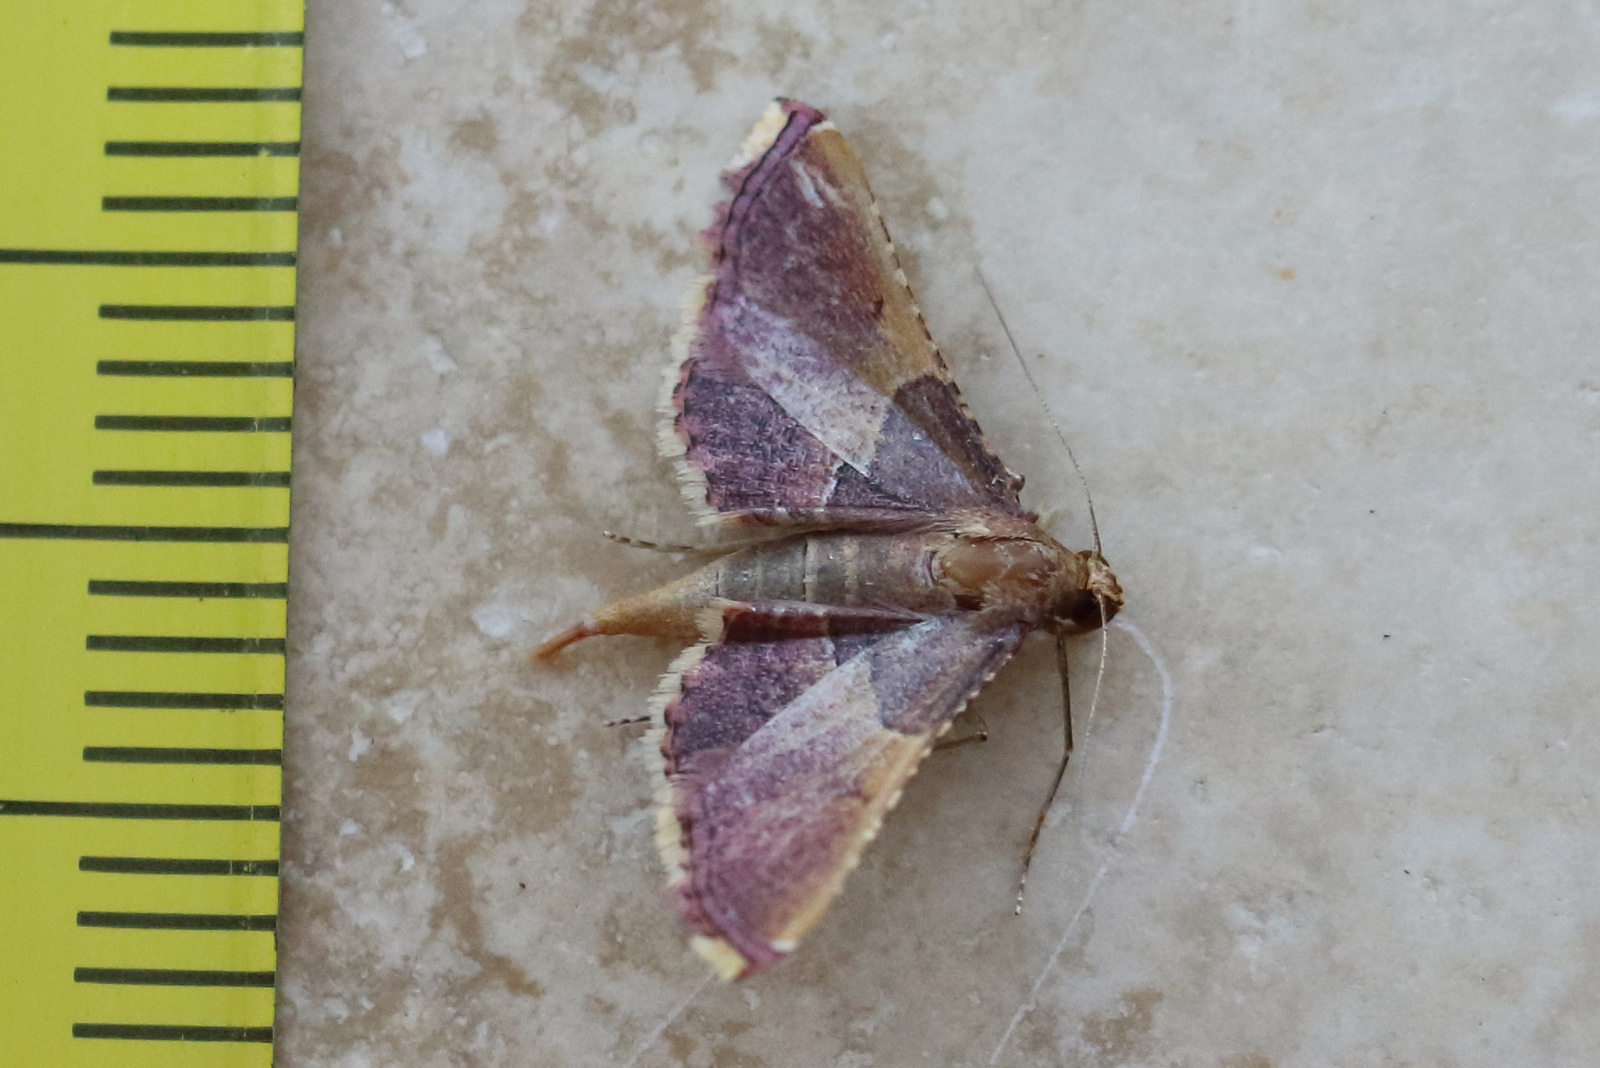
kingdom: Animalia
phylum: Arthropoda
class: Insecta
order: Lepidoptera
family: Pyralidae
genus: Endotricha
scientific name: Endotricha mesenterialis
